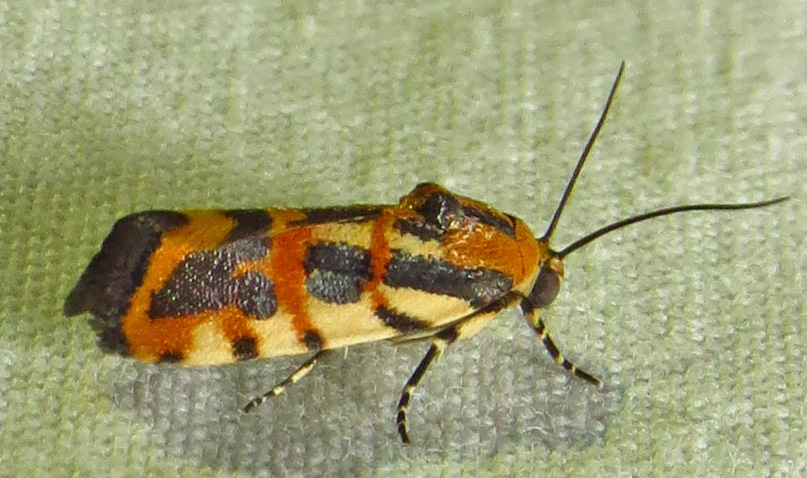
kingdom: Animalia
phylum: Arthropoda
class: Insecta
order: Lepidoptera
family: Noctuidae
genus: Acontia
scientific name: Acontia leo
